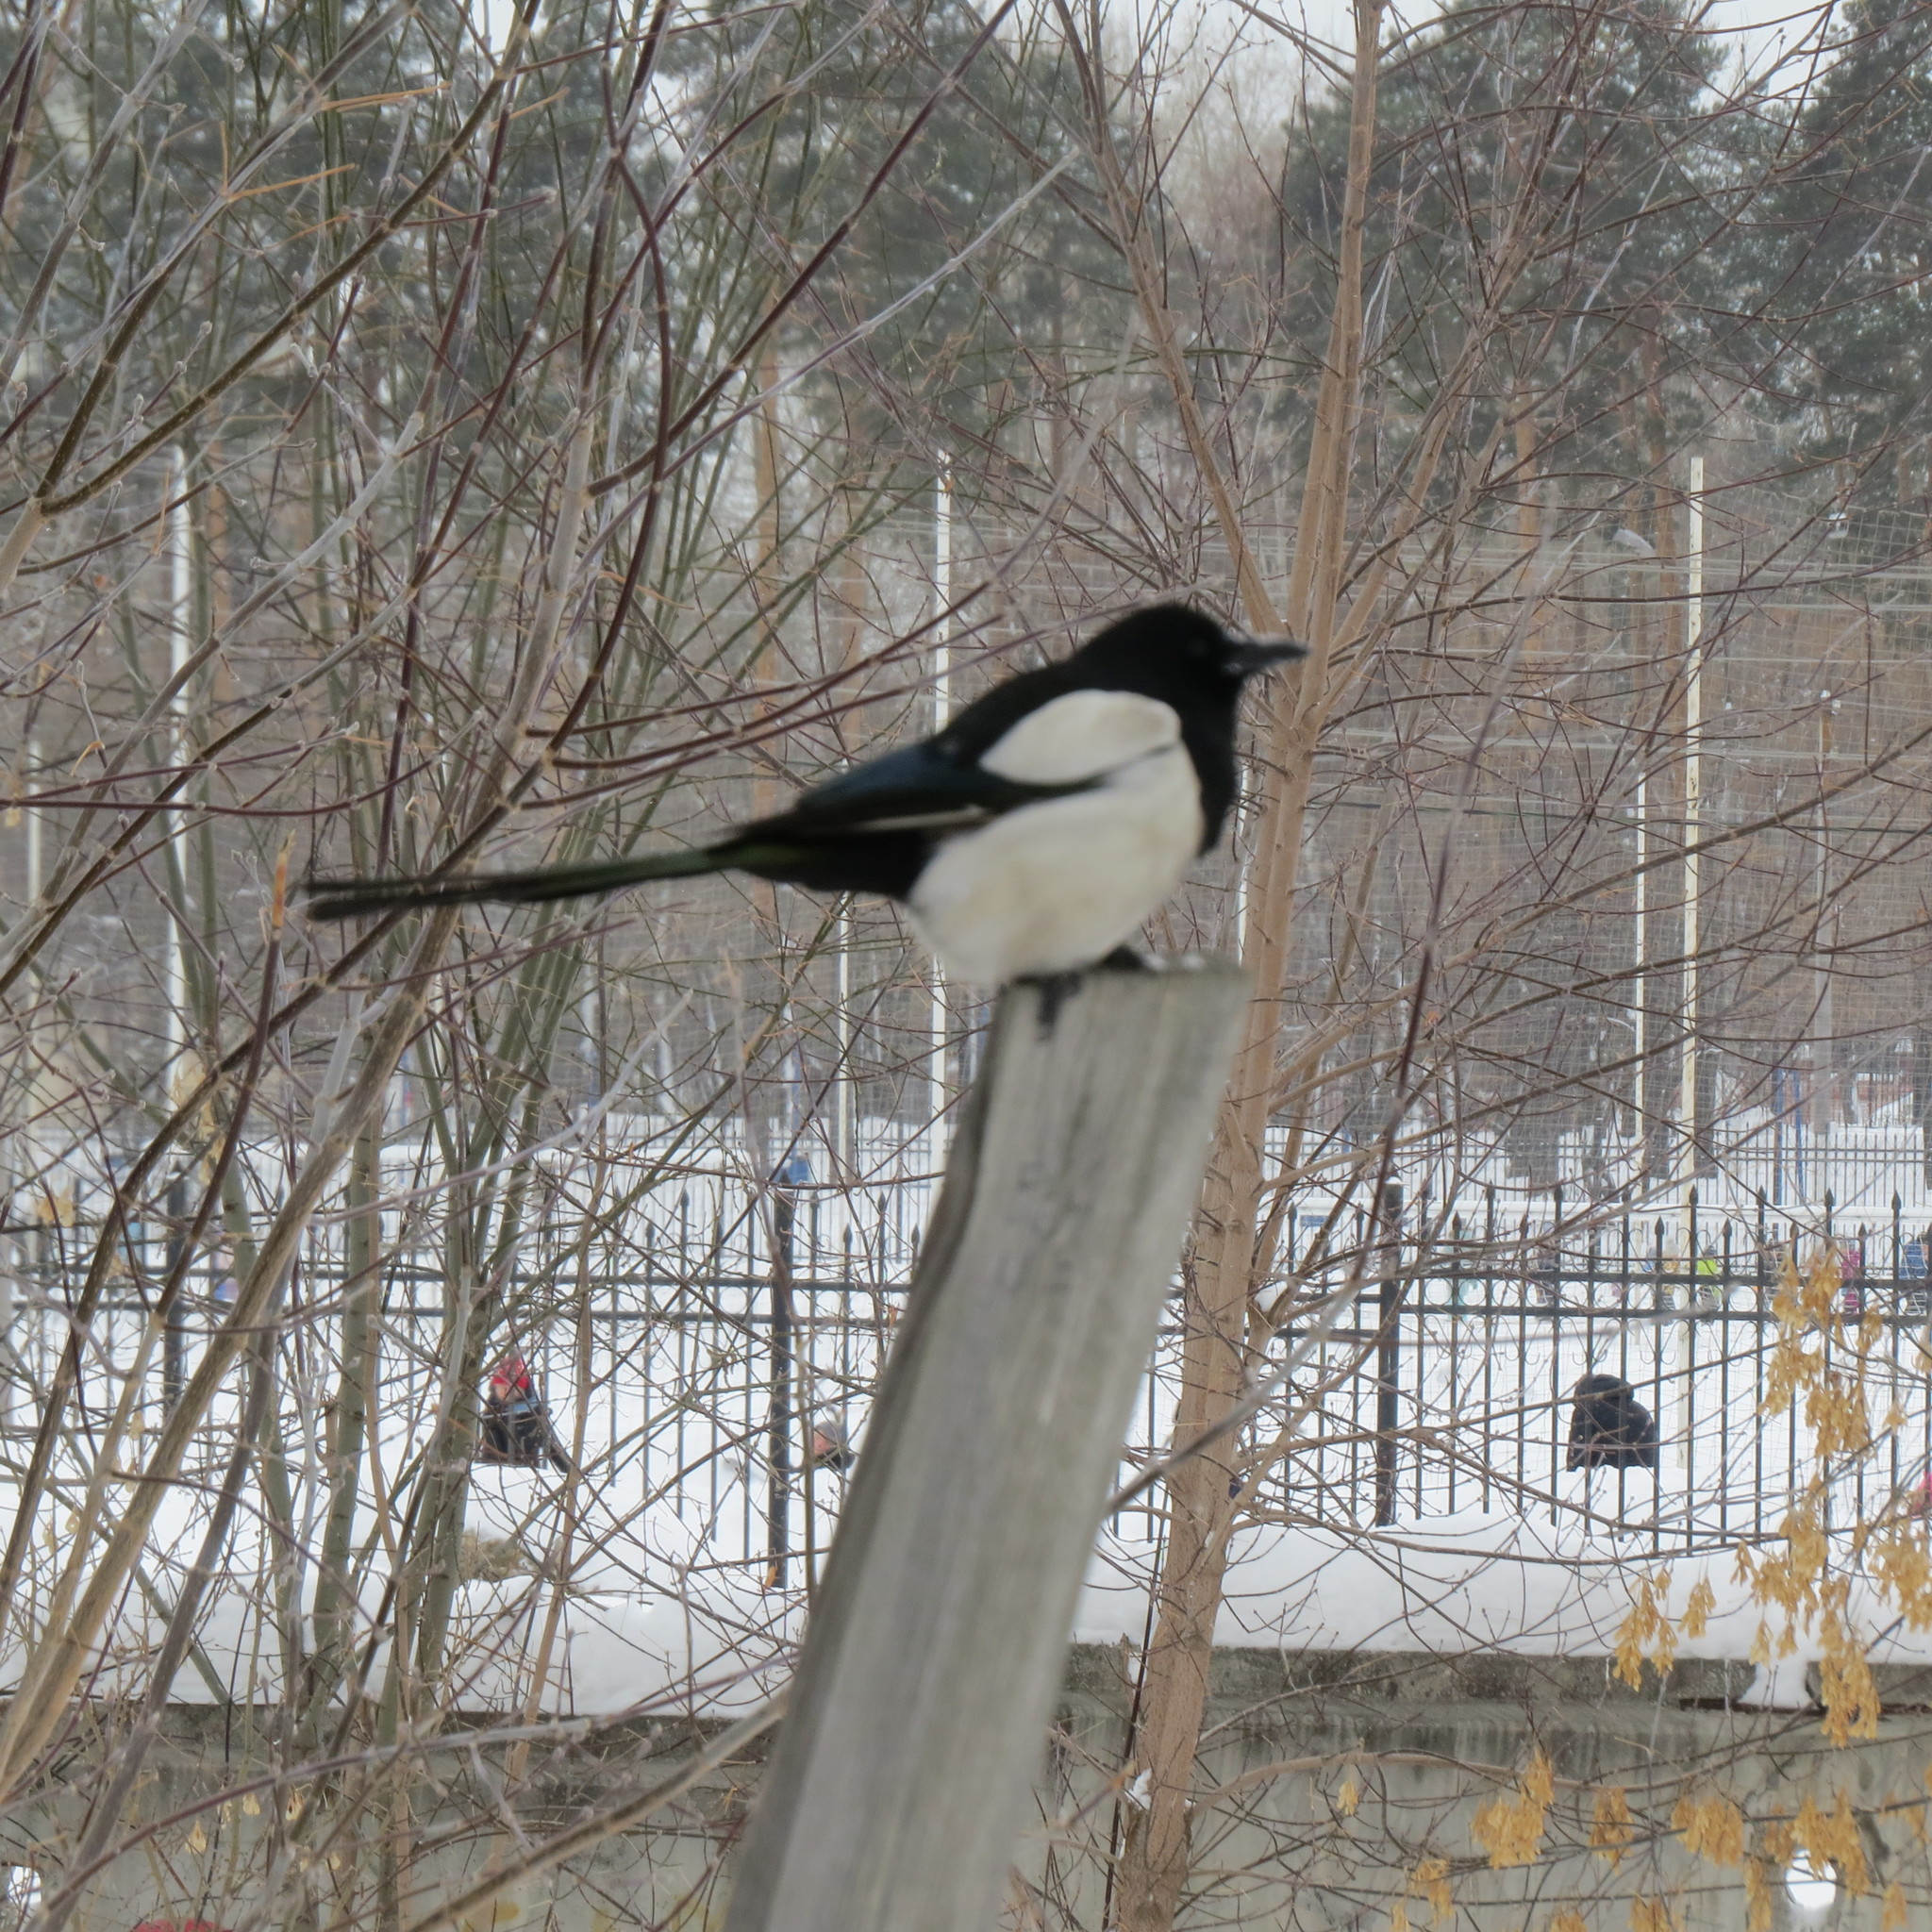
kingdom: Animalia
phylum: Chordata
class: Aves
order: Passeriformes
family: Corvidae
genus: Pica
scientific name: Pica pica
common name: Eurasian magpie
